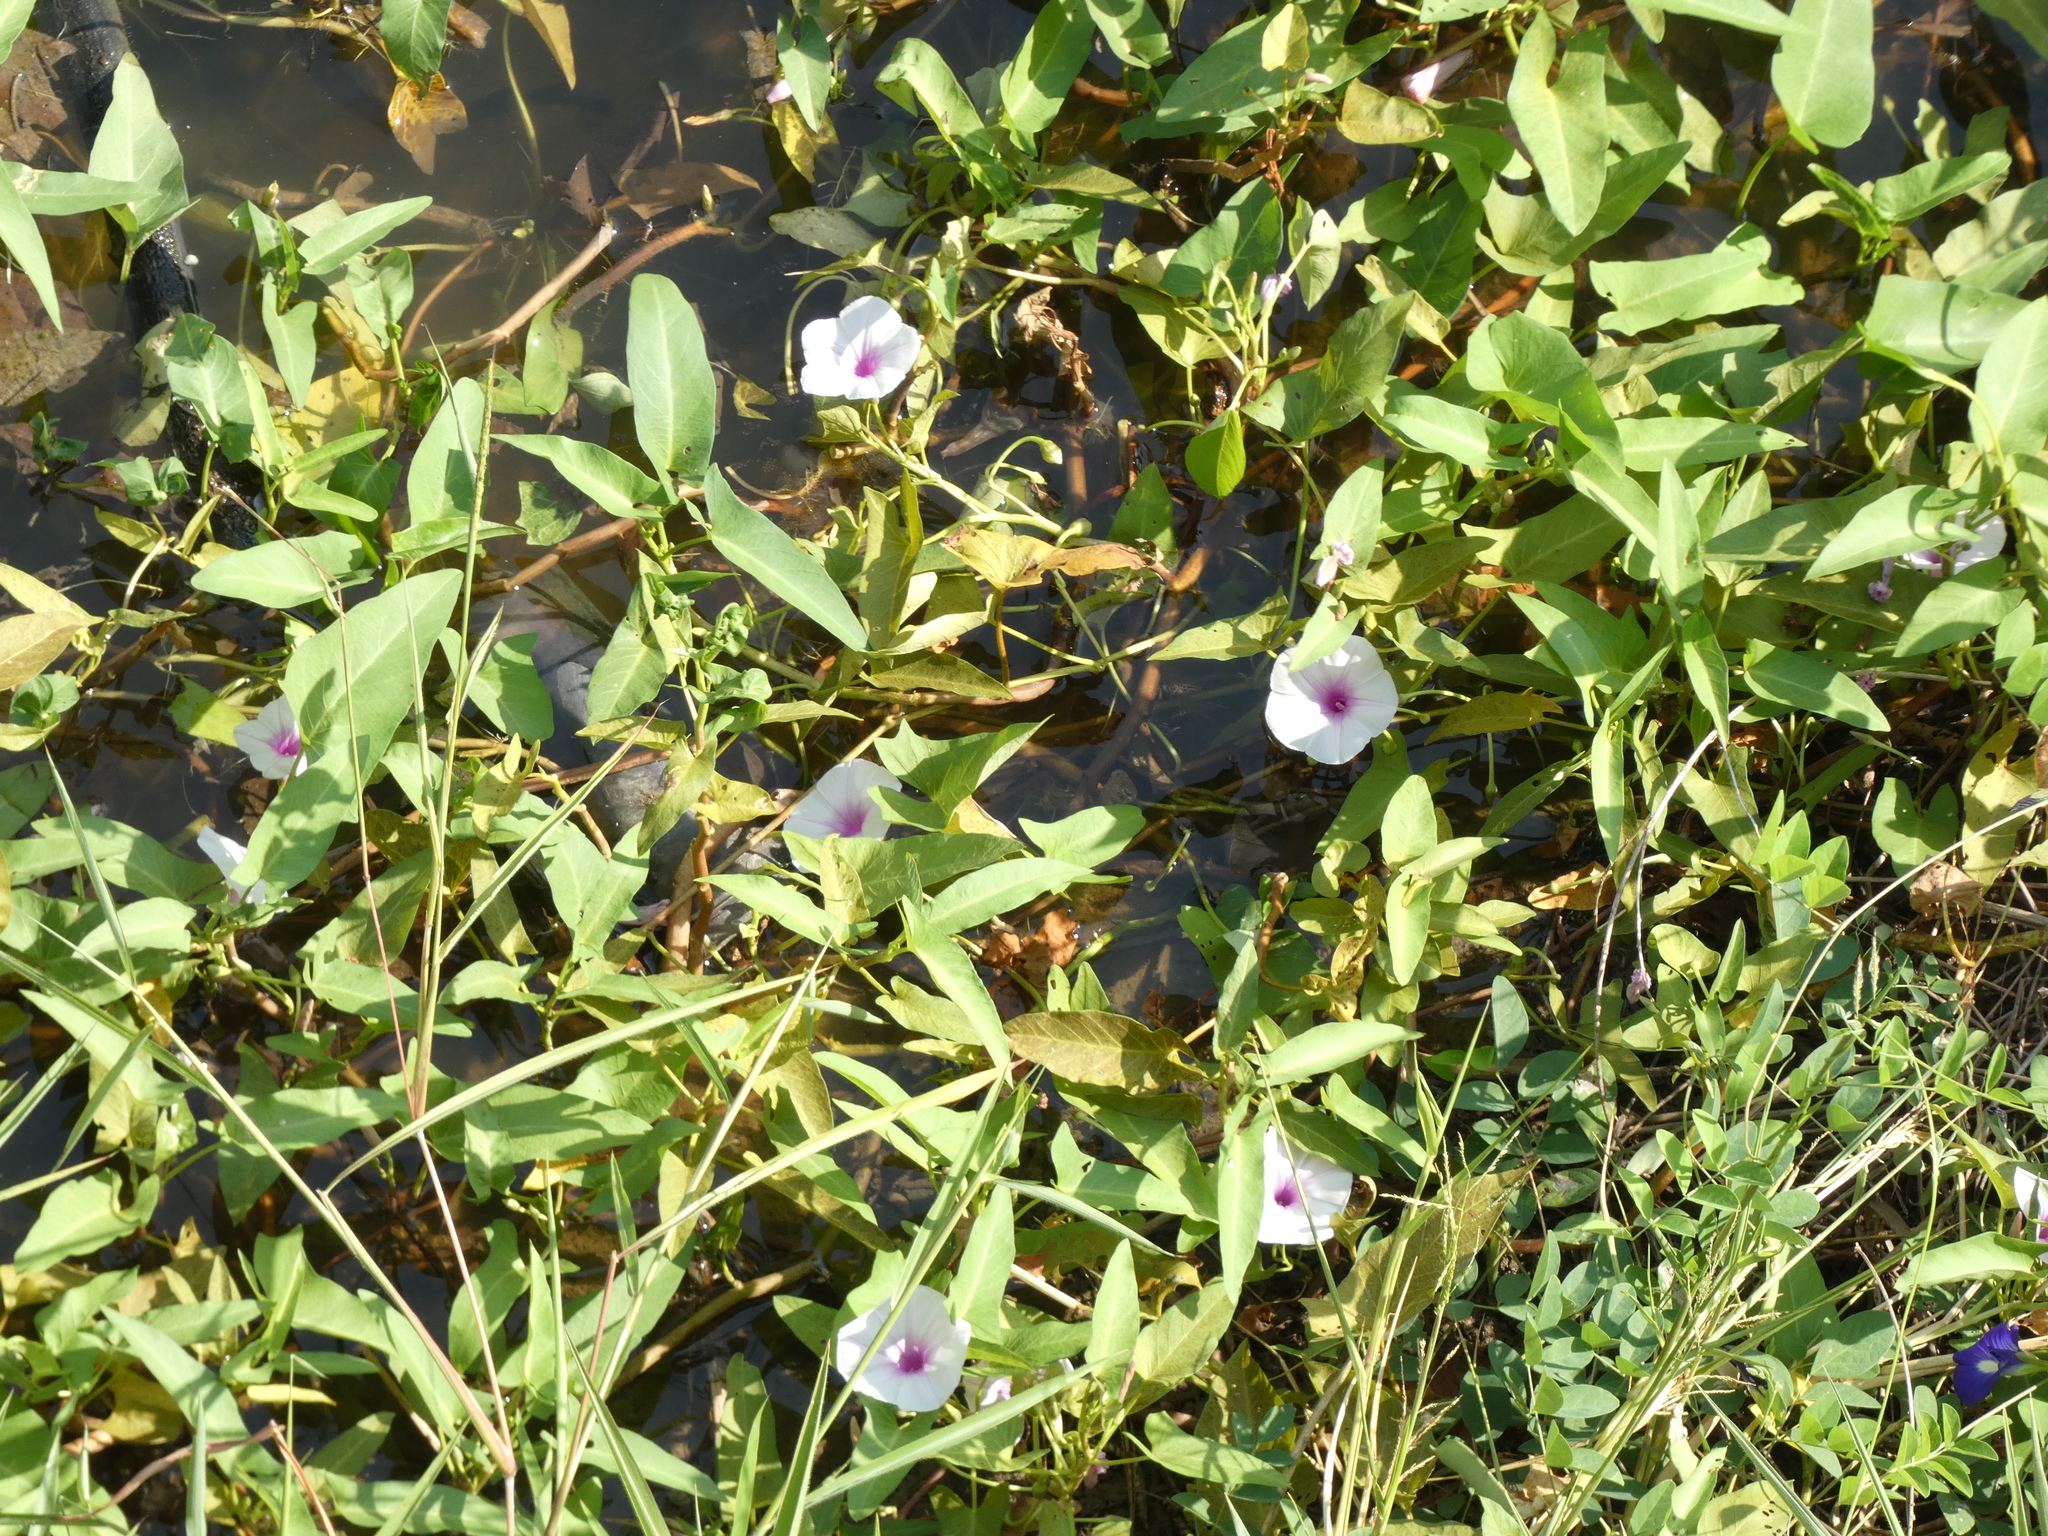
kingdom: Plantae
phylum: Tracheophyta
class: Magnoliopsida
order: Solanales
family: Convolvulaceae
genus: Ipomoea
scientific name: Ipomoea aquatica
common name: Swamp morning-glory
